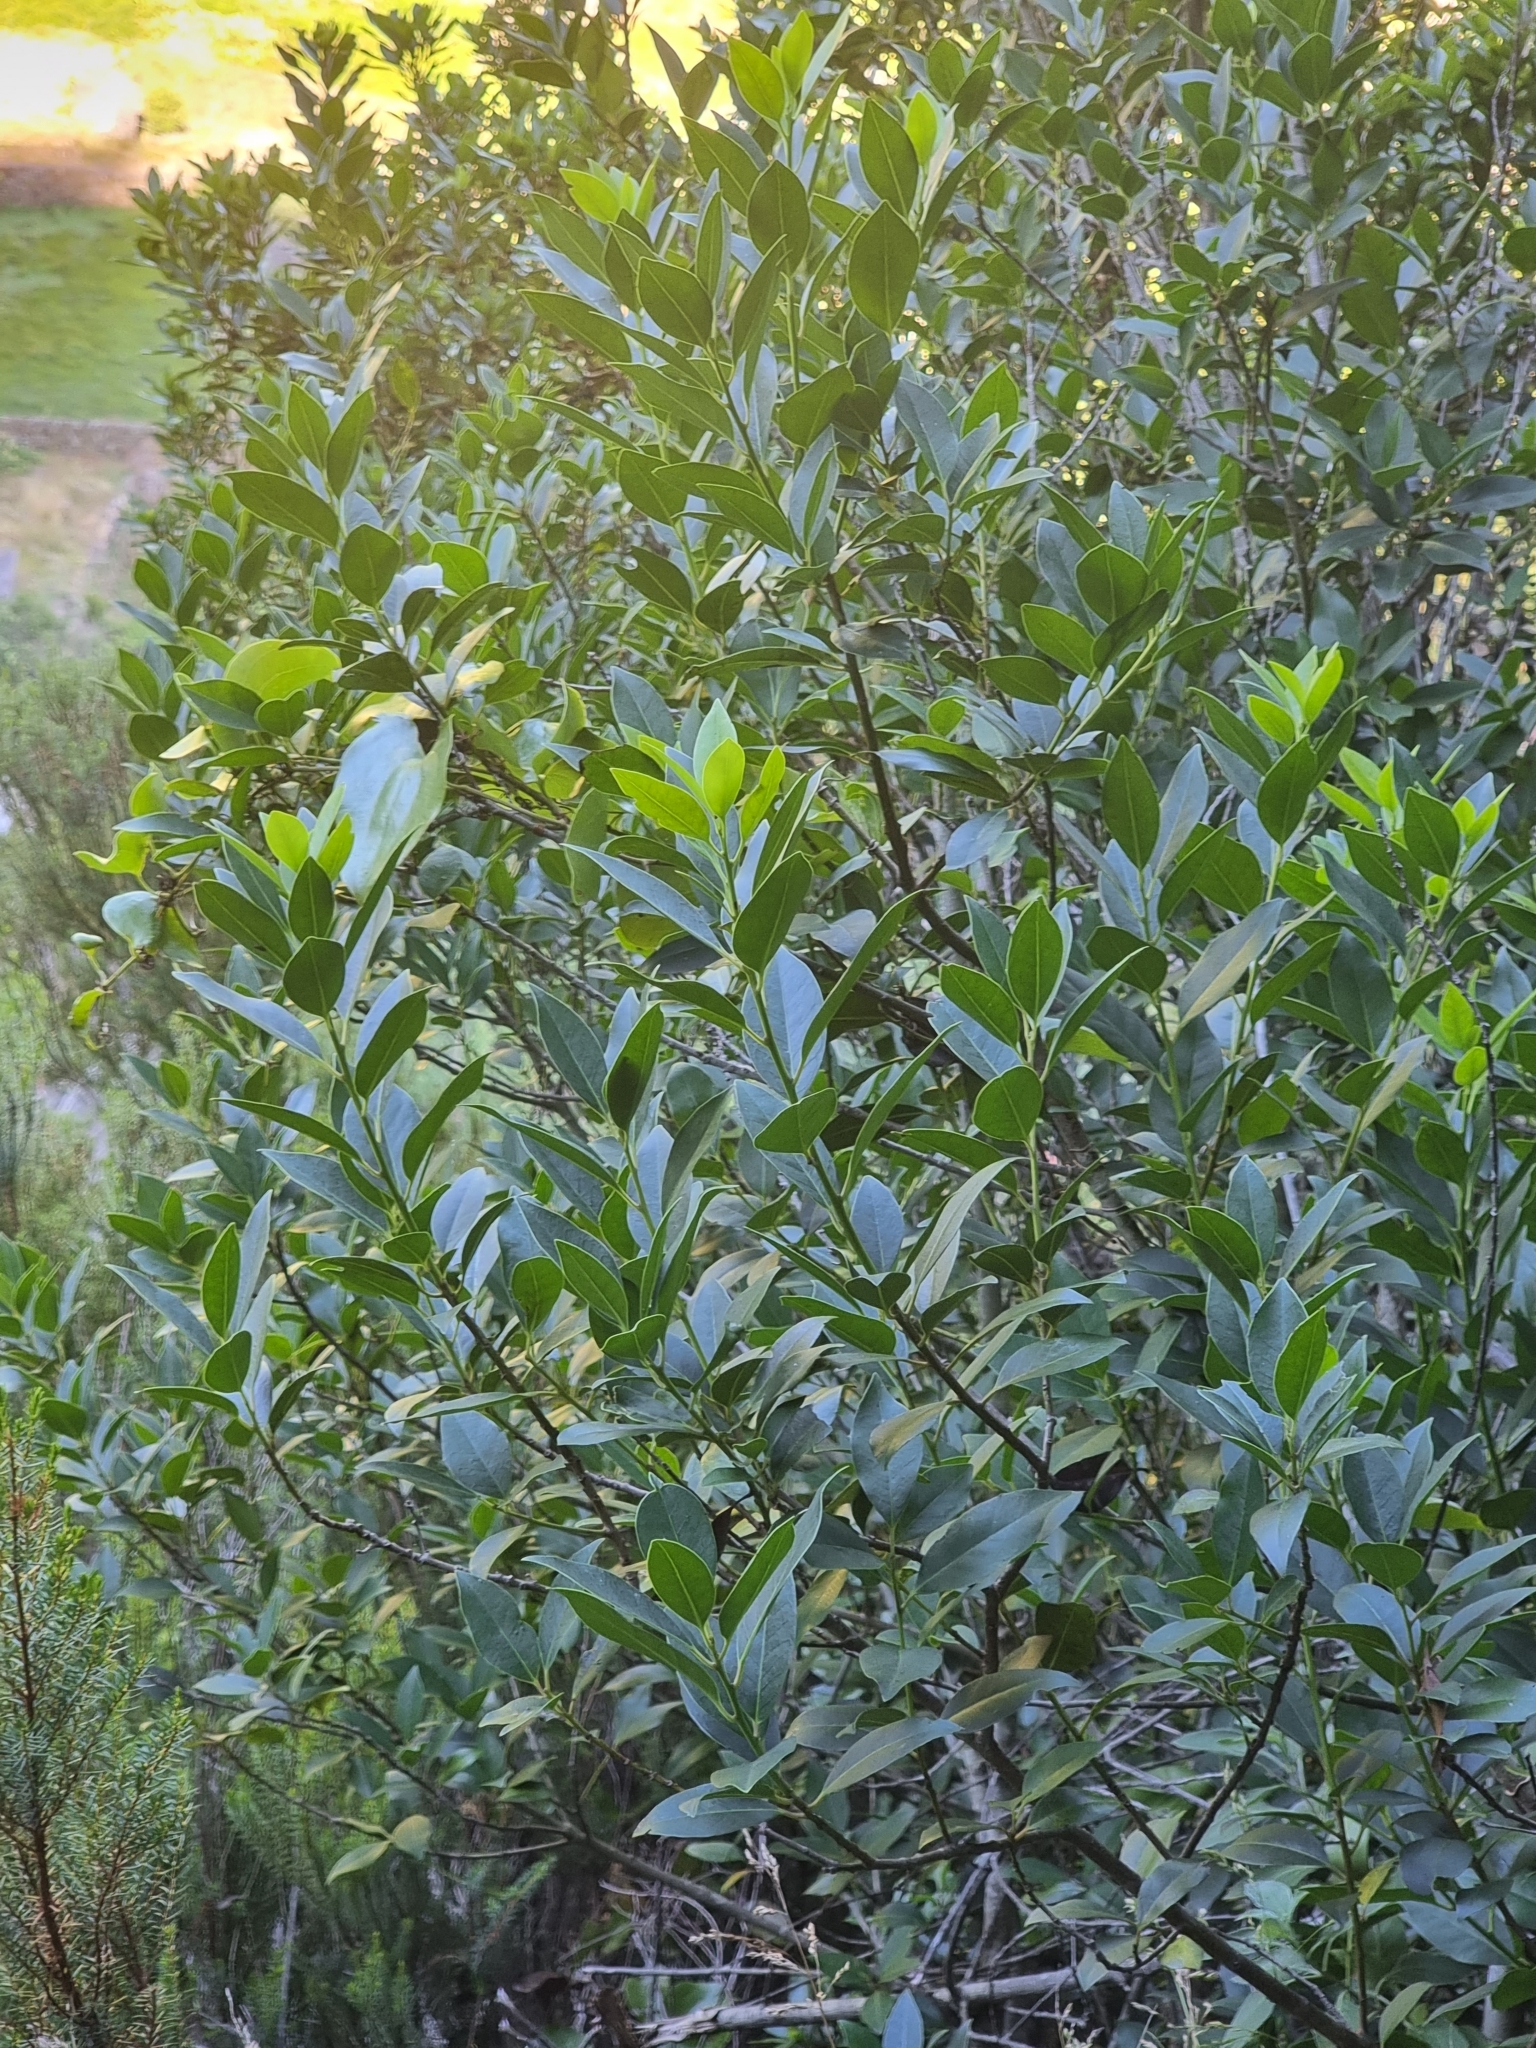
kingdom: Plantae
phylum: Tracheophyta
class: Magnoliopsida
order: Aquifoliales
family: Aquifoliaceae
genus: Ilex
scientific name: Ilex canariensis
